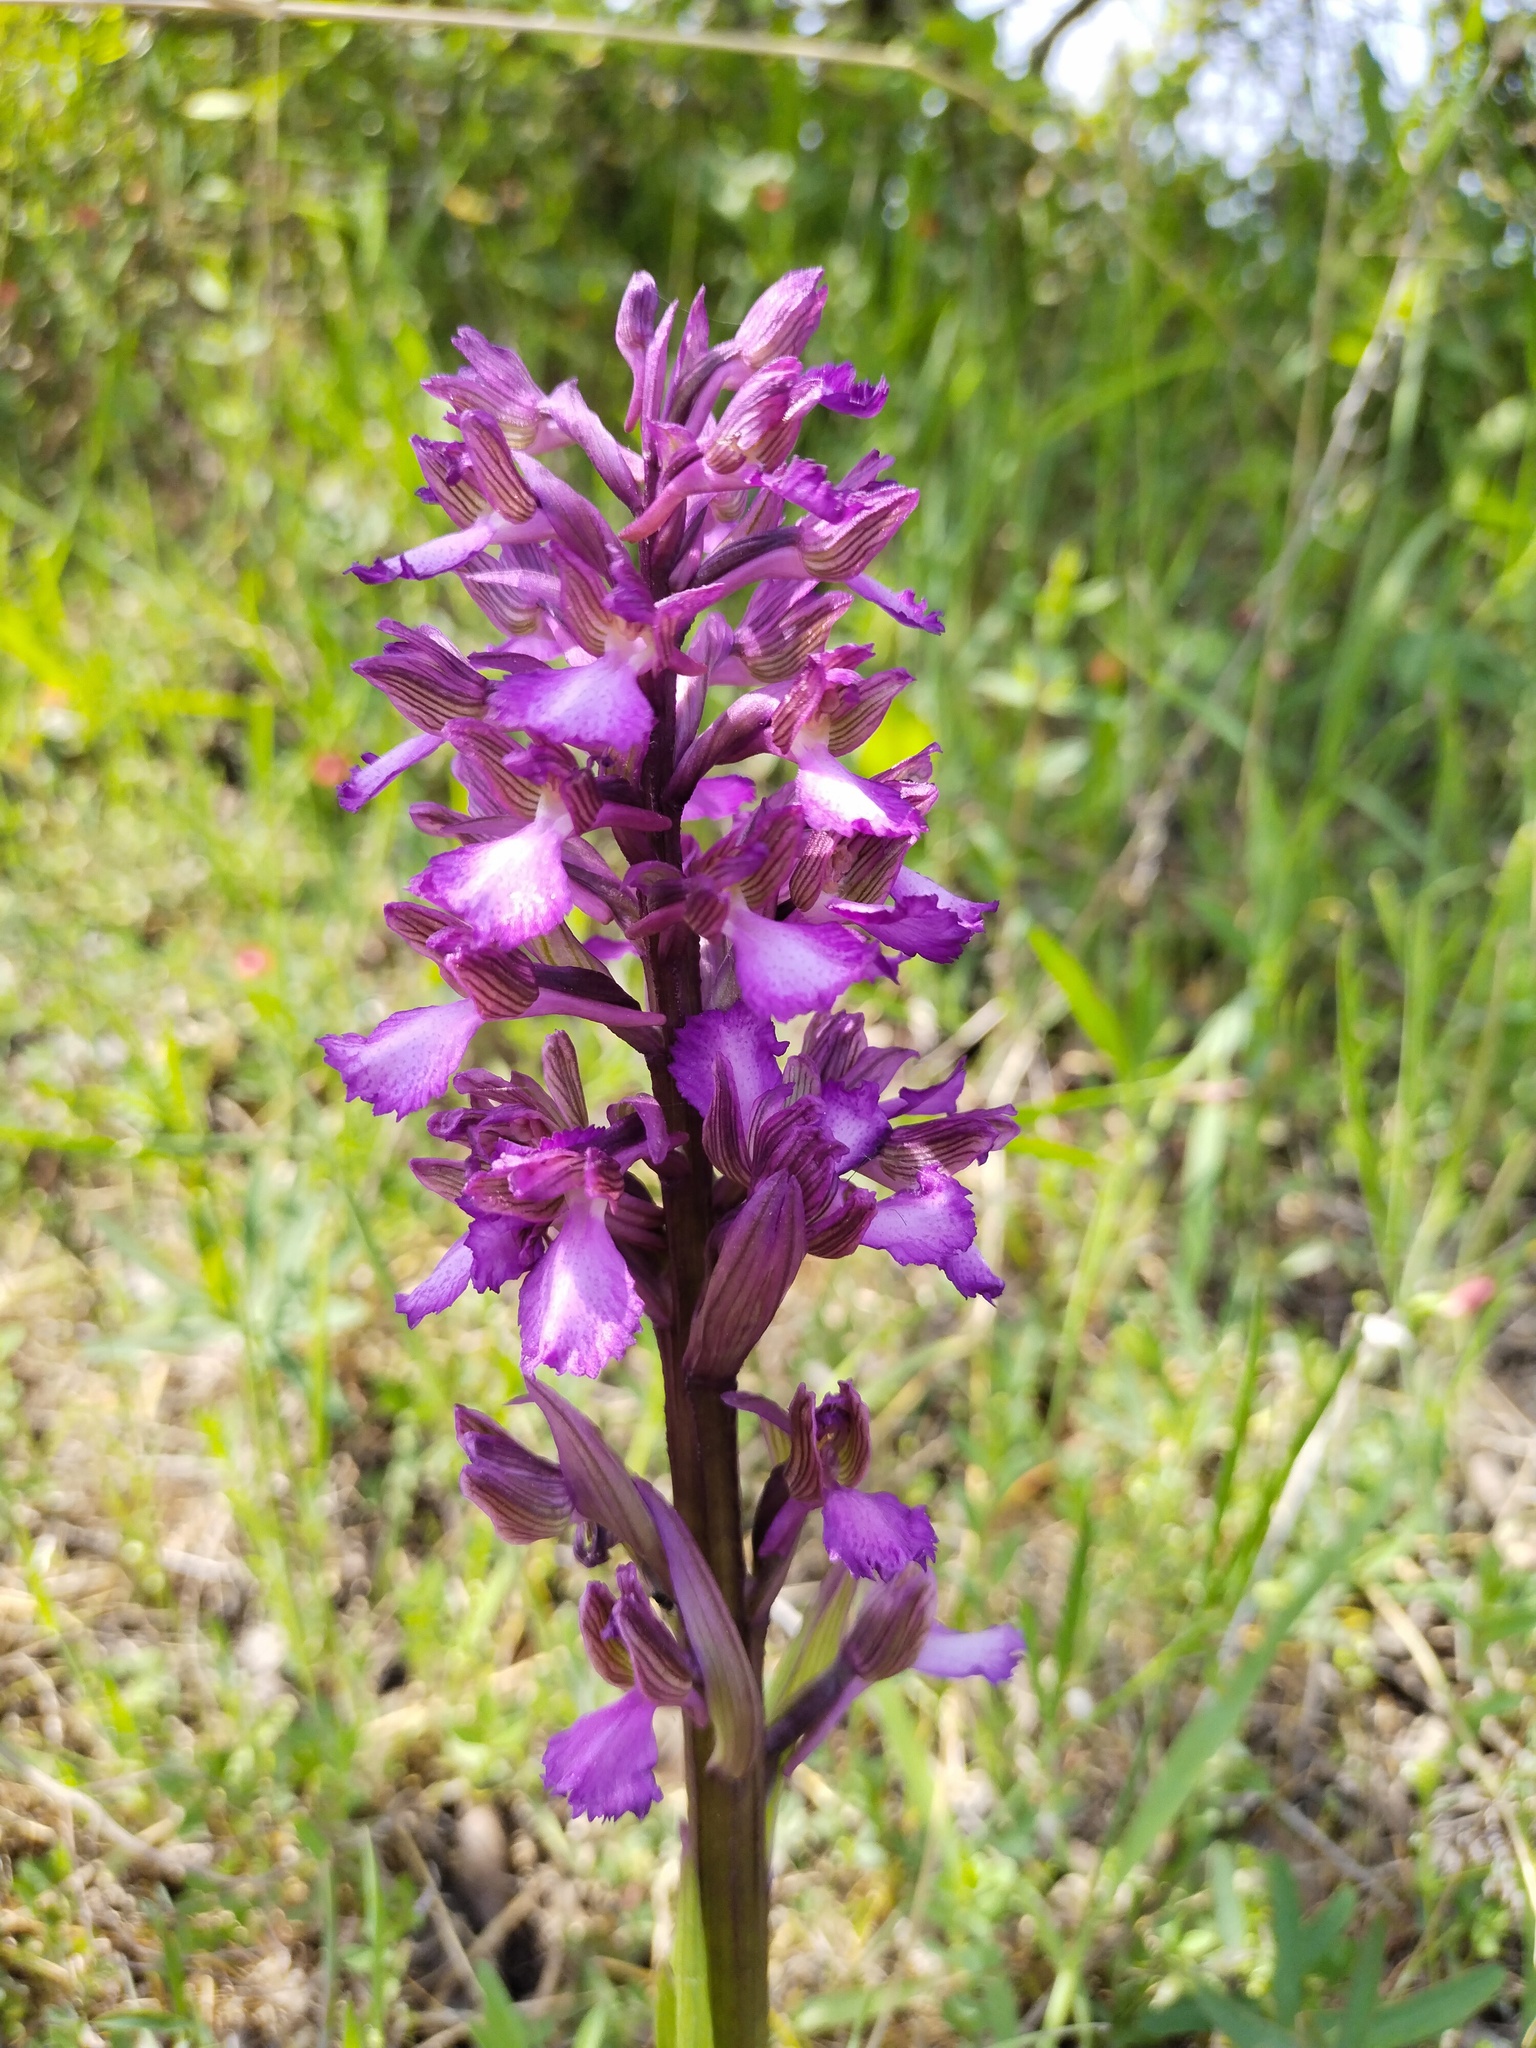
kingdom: Plantae
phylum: Tracheophyta
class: Liliopsida
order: Asparagales
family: Orchidaceae
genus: Anacamptis
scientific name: Anacamptis papilionacea
